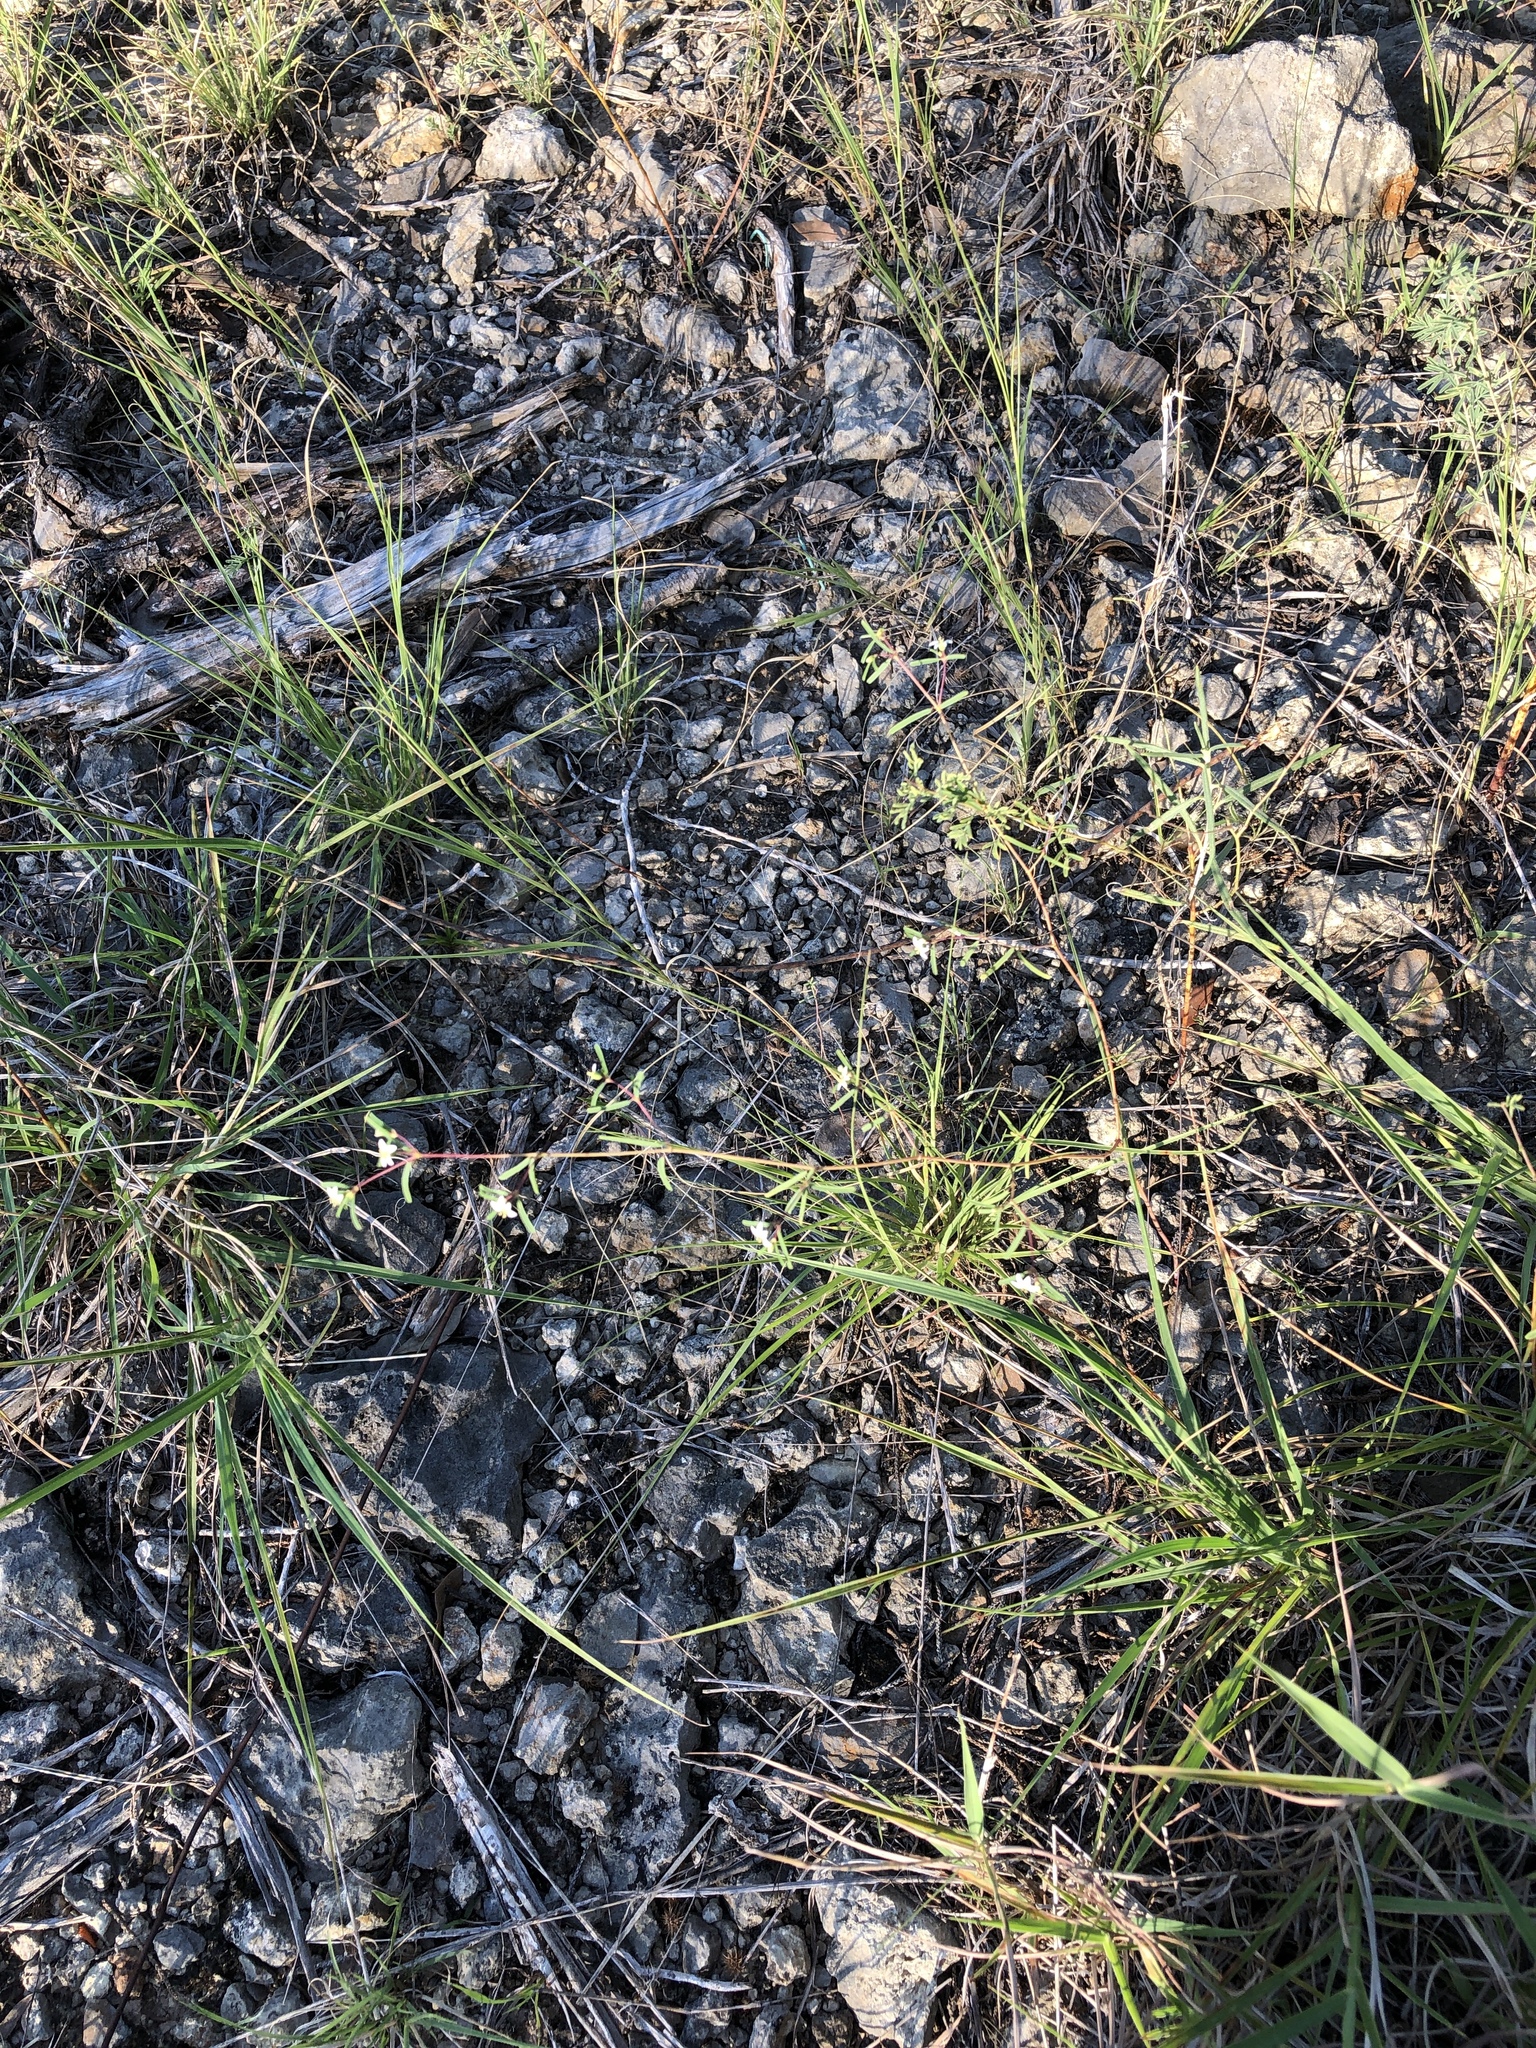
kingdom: Plantae
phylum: Tracheophyta
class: Magnoliopsida
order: Malpighiales
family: Euphorbiaceae
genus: Euphorbia
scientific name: Euphorbia missurica
